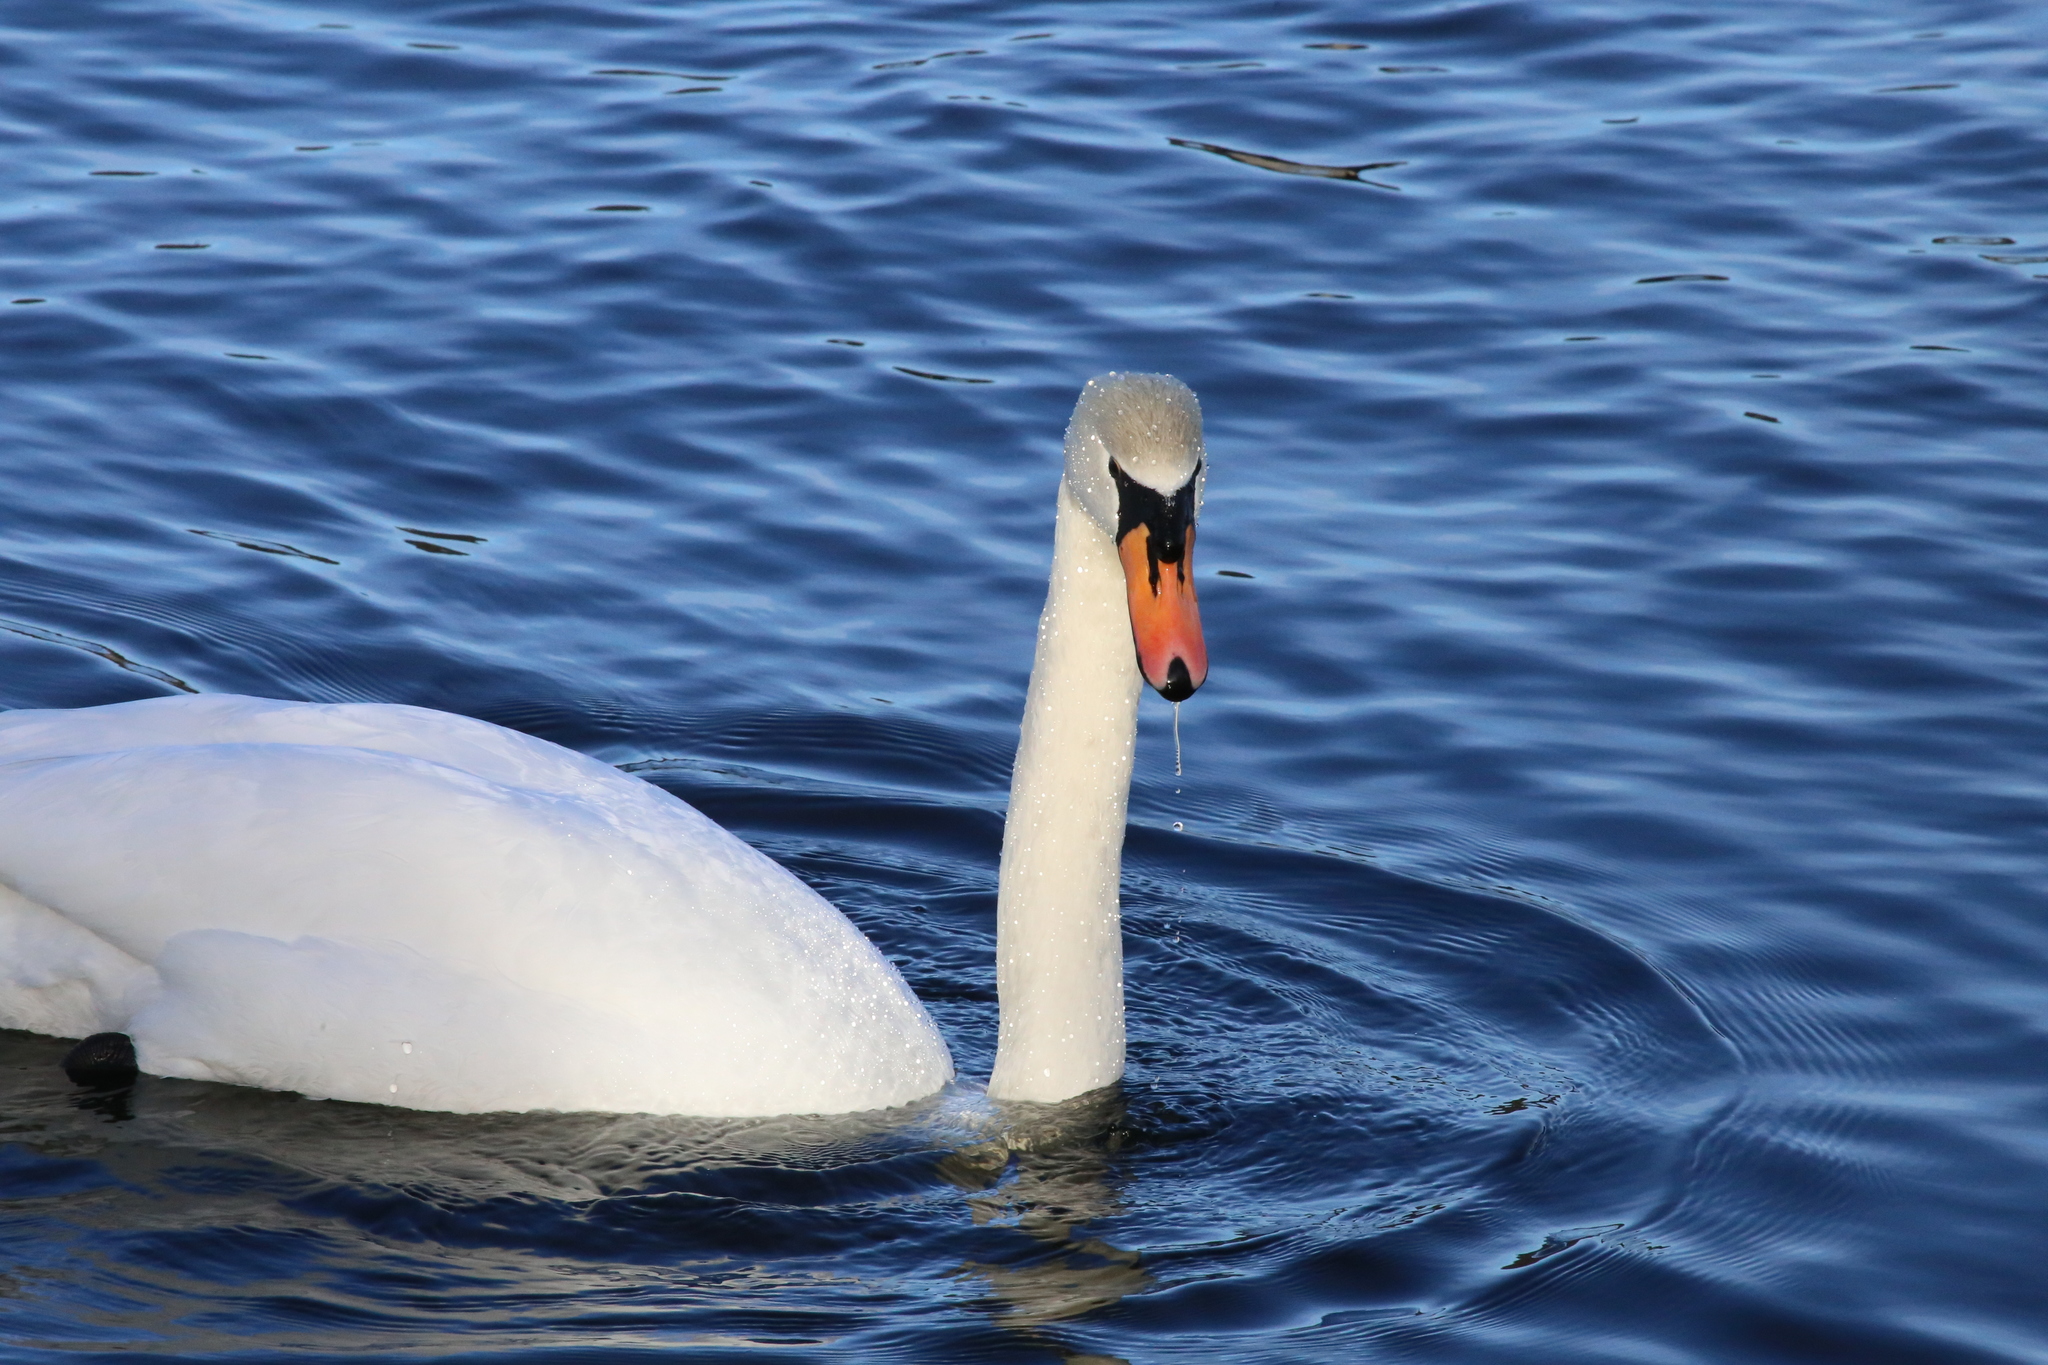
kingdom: Animalia
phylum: Chordata
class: Aves
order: Anseriformes
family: Anatidae
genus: Cygnus
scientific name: Cygnus olor
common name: Mute swan
